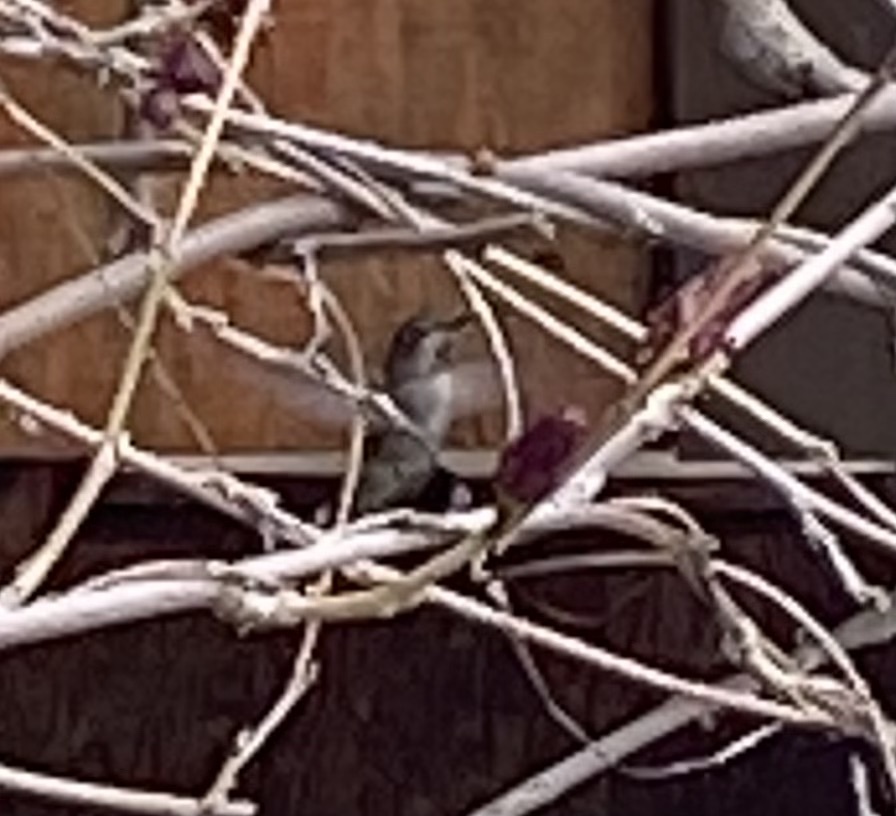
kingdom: Animalia
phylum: Chordata
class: Aves
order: Apodiformes
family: Trochilidae
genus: Calypte
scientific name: Calypte anna
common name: Anna's hummingbird
